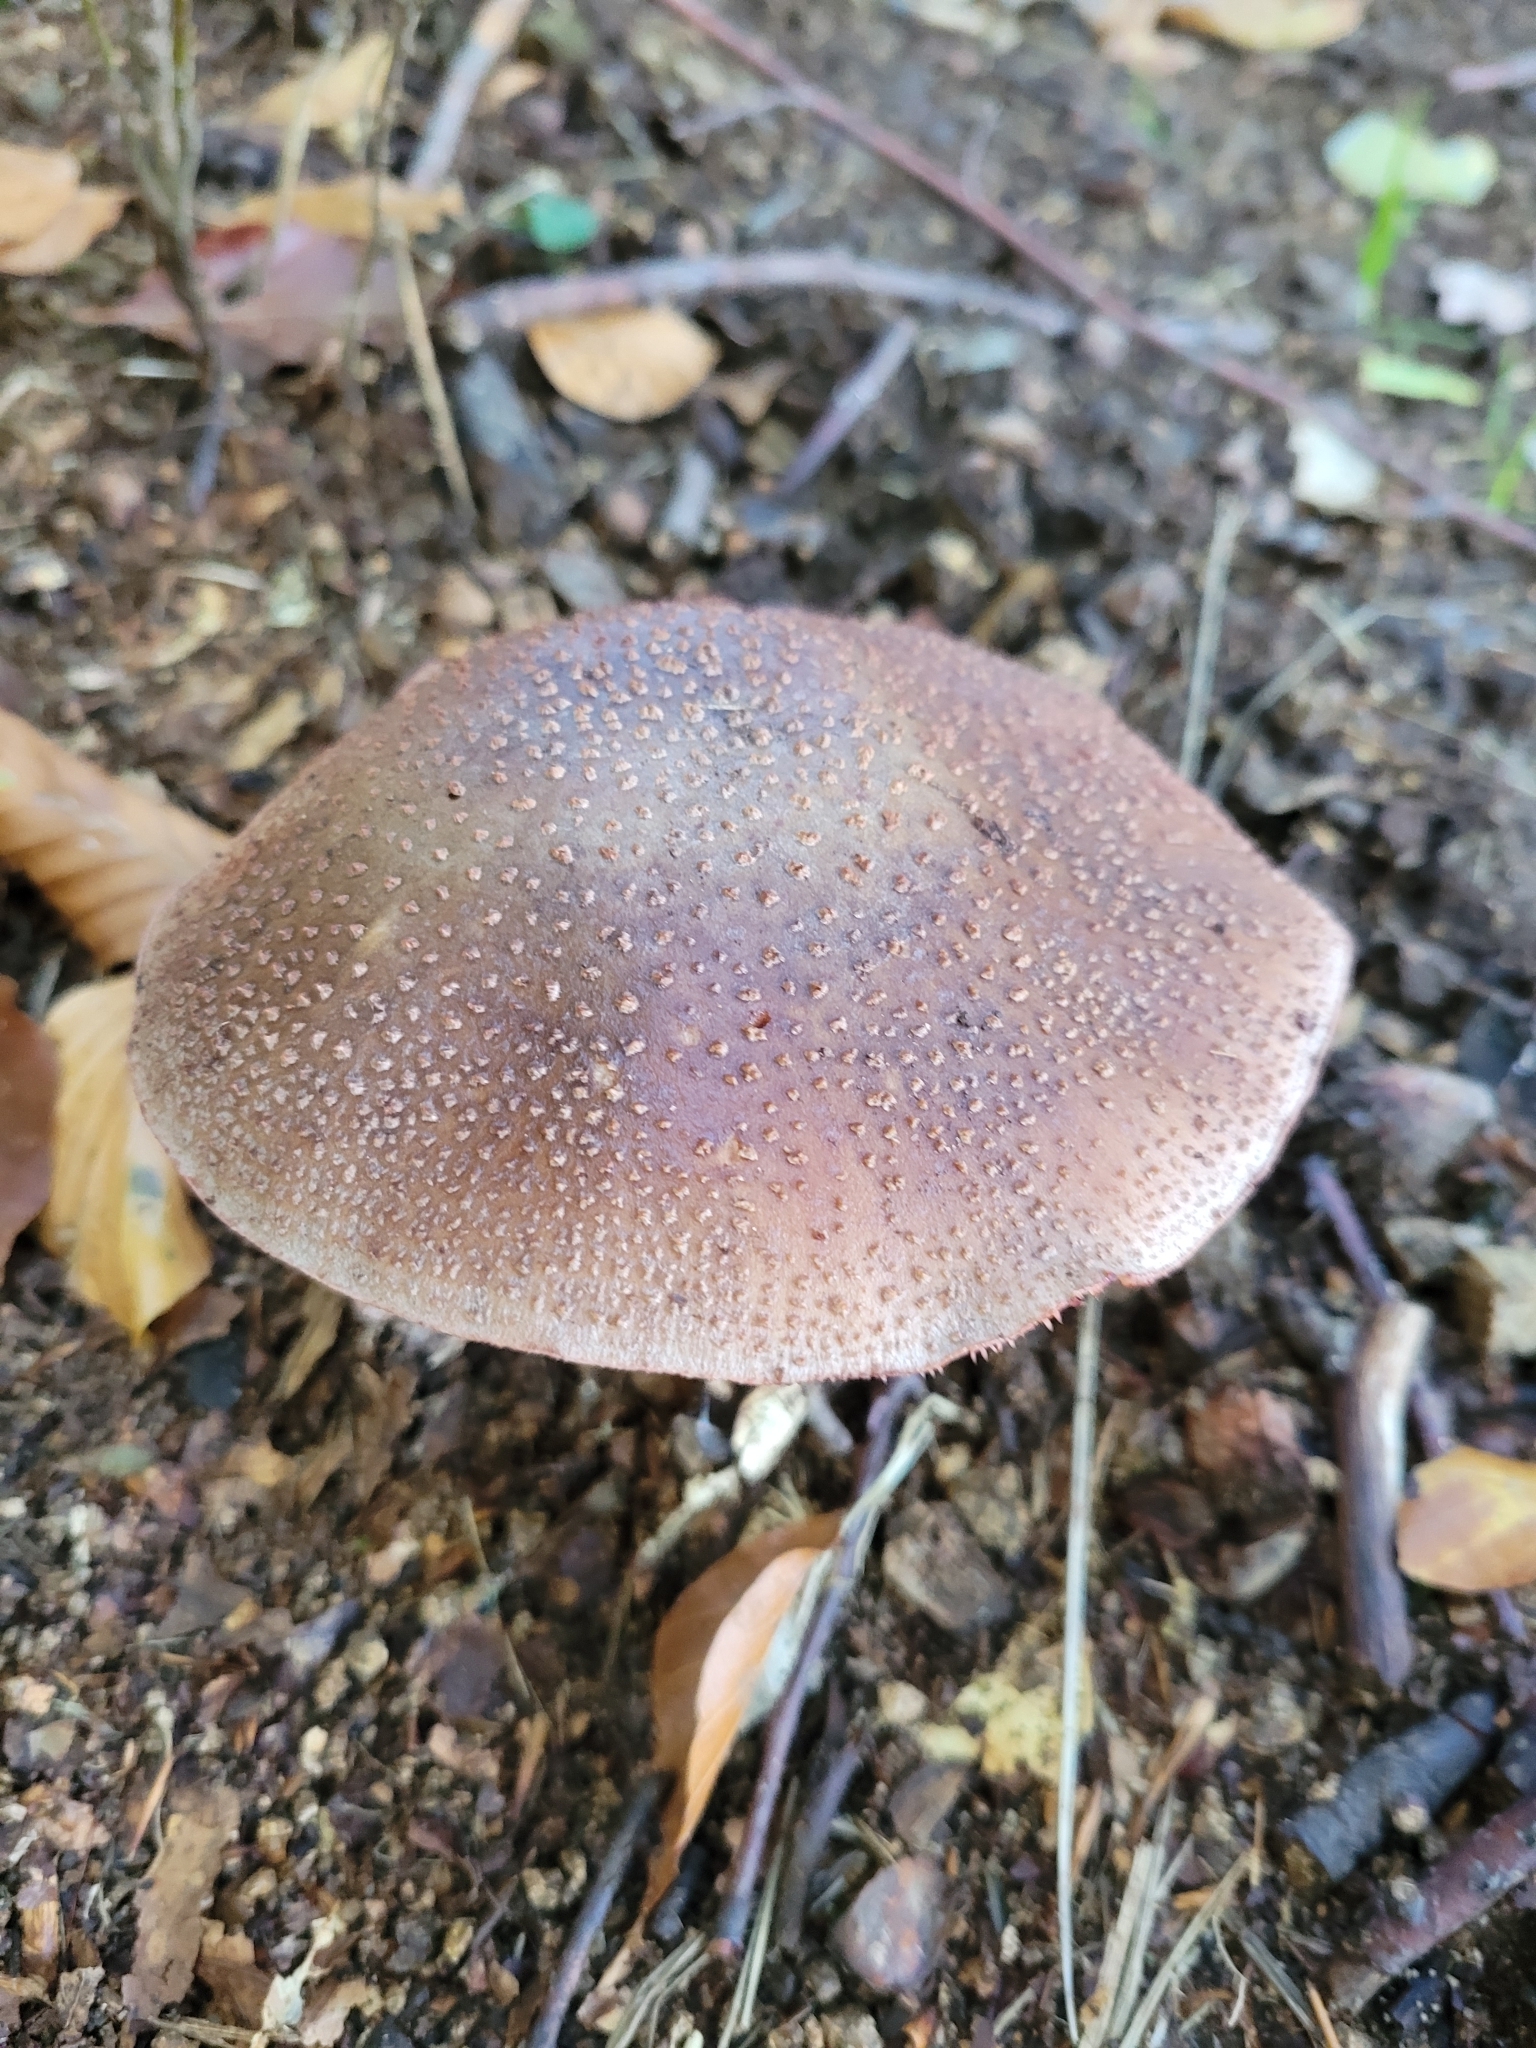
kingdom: Fungi
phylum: Basidiomycota
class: Agaricomycetes
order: Agaricales
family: Amanitaceae
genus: Amanita
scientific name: Amanita rubescens
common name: Blusher
